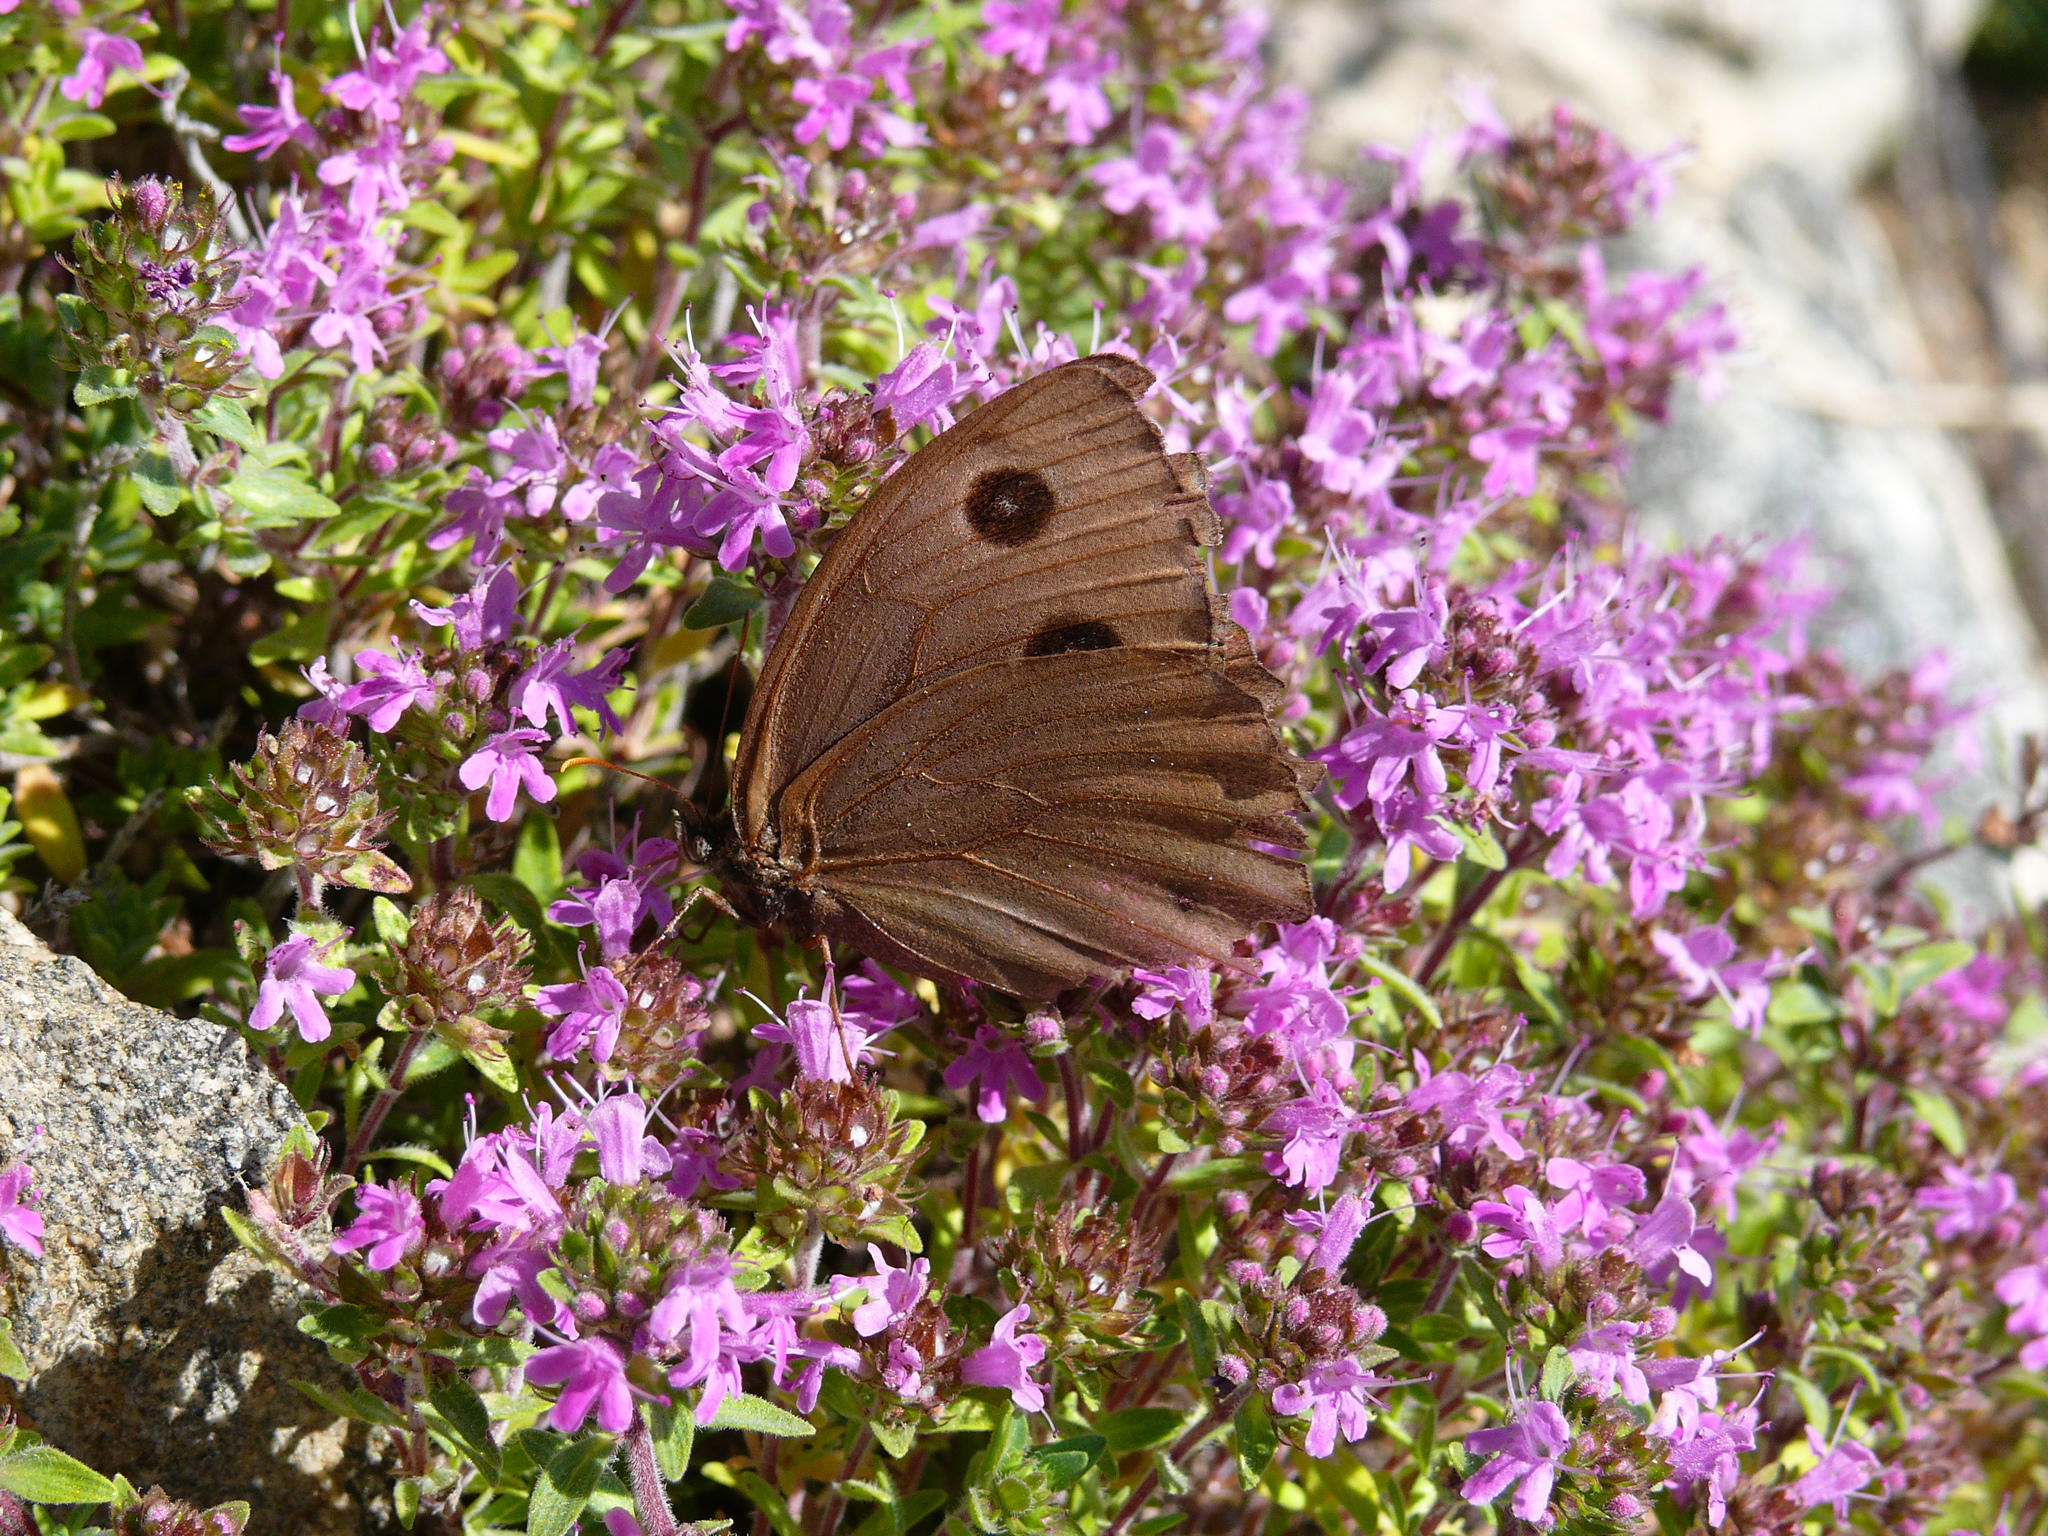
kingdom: Animalia
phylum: Arthropoda
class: Insecta
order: Lepidoptera
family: Nymphalidae
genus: Minois
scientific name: Minois dryas
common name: Dryad
